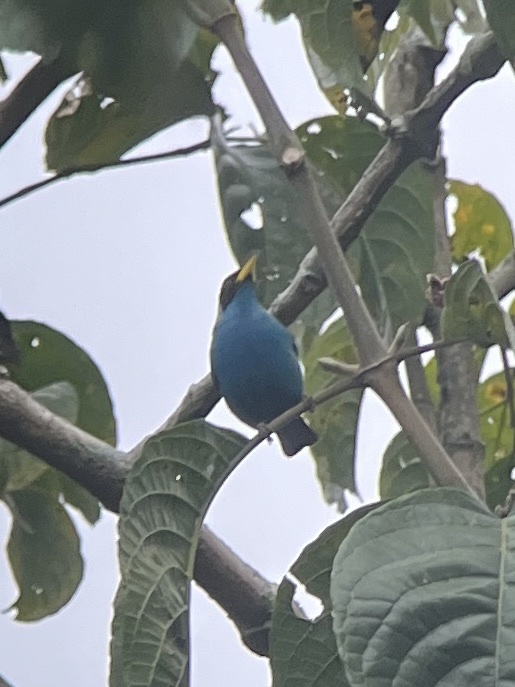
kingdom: Animalia
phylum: Chordata
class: Aves
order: Passeriformes
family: Thraupidae
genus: Chlorophanes
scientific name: Chlorophanes spiza
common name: Green honeycreeper
